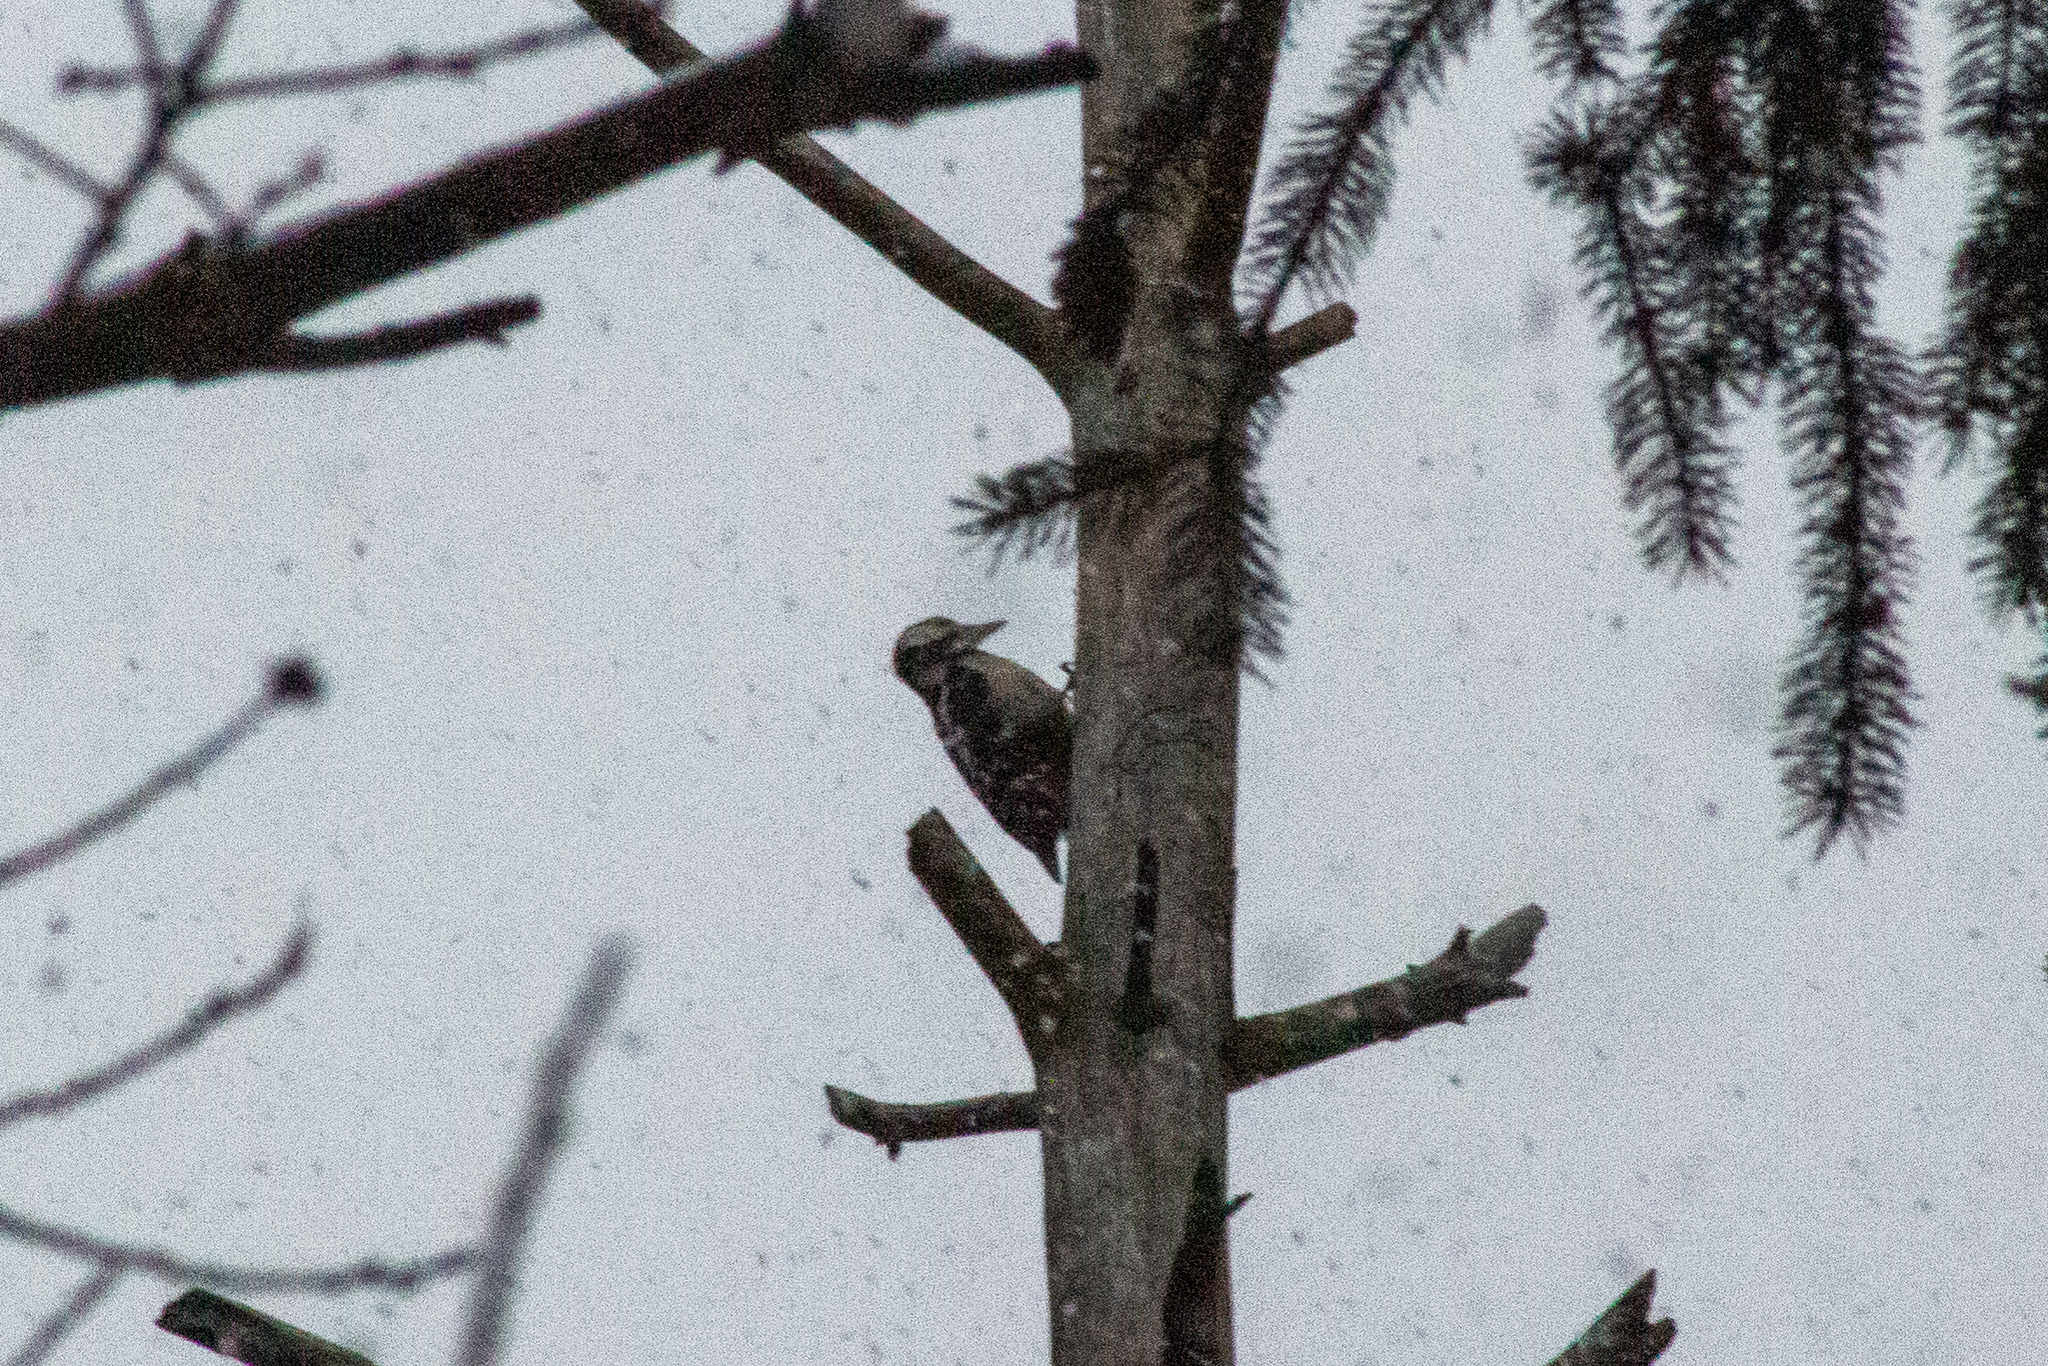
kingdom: Animalia
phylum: Chordata
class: Aves
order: Piciformes
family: Picidae
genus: Dendrocopos
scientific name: Dendrocopos major
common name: Great spotted woodpecker
